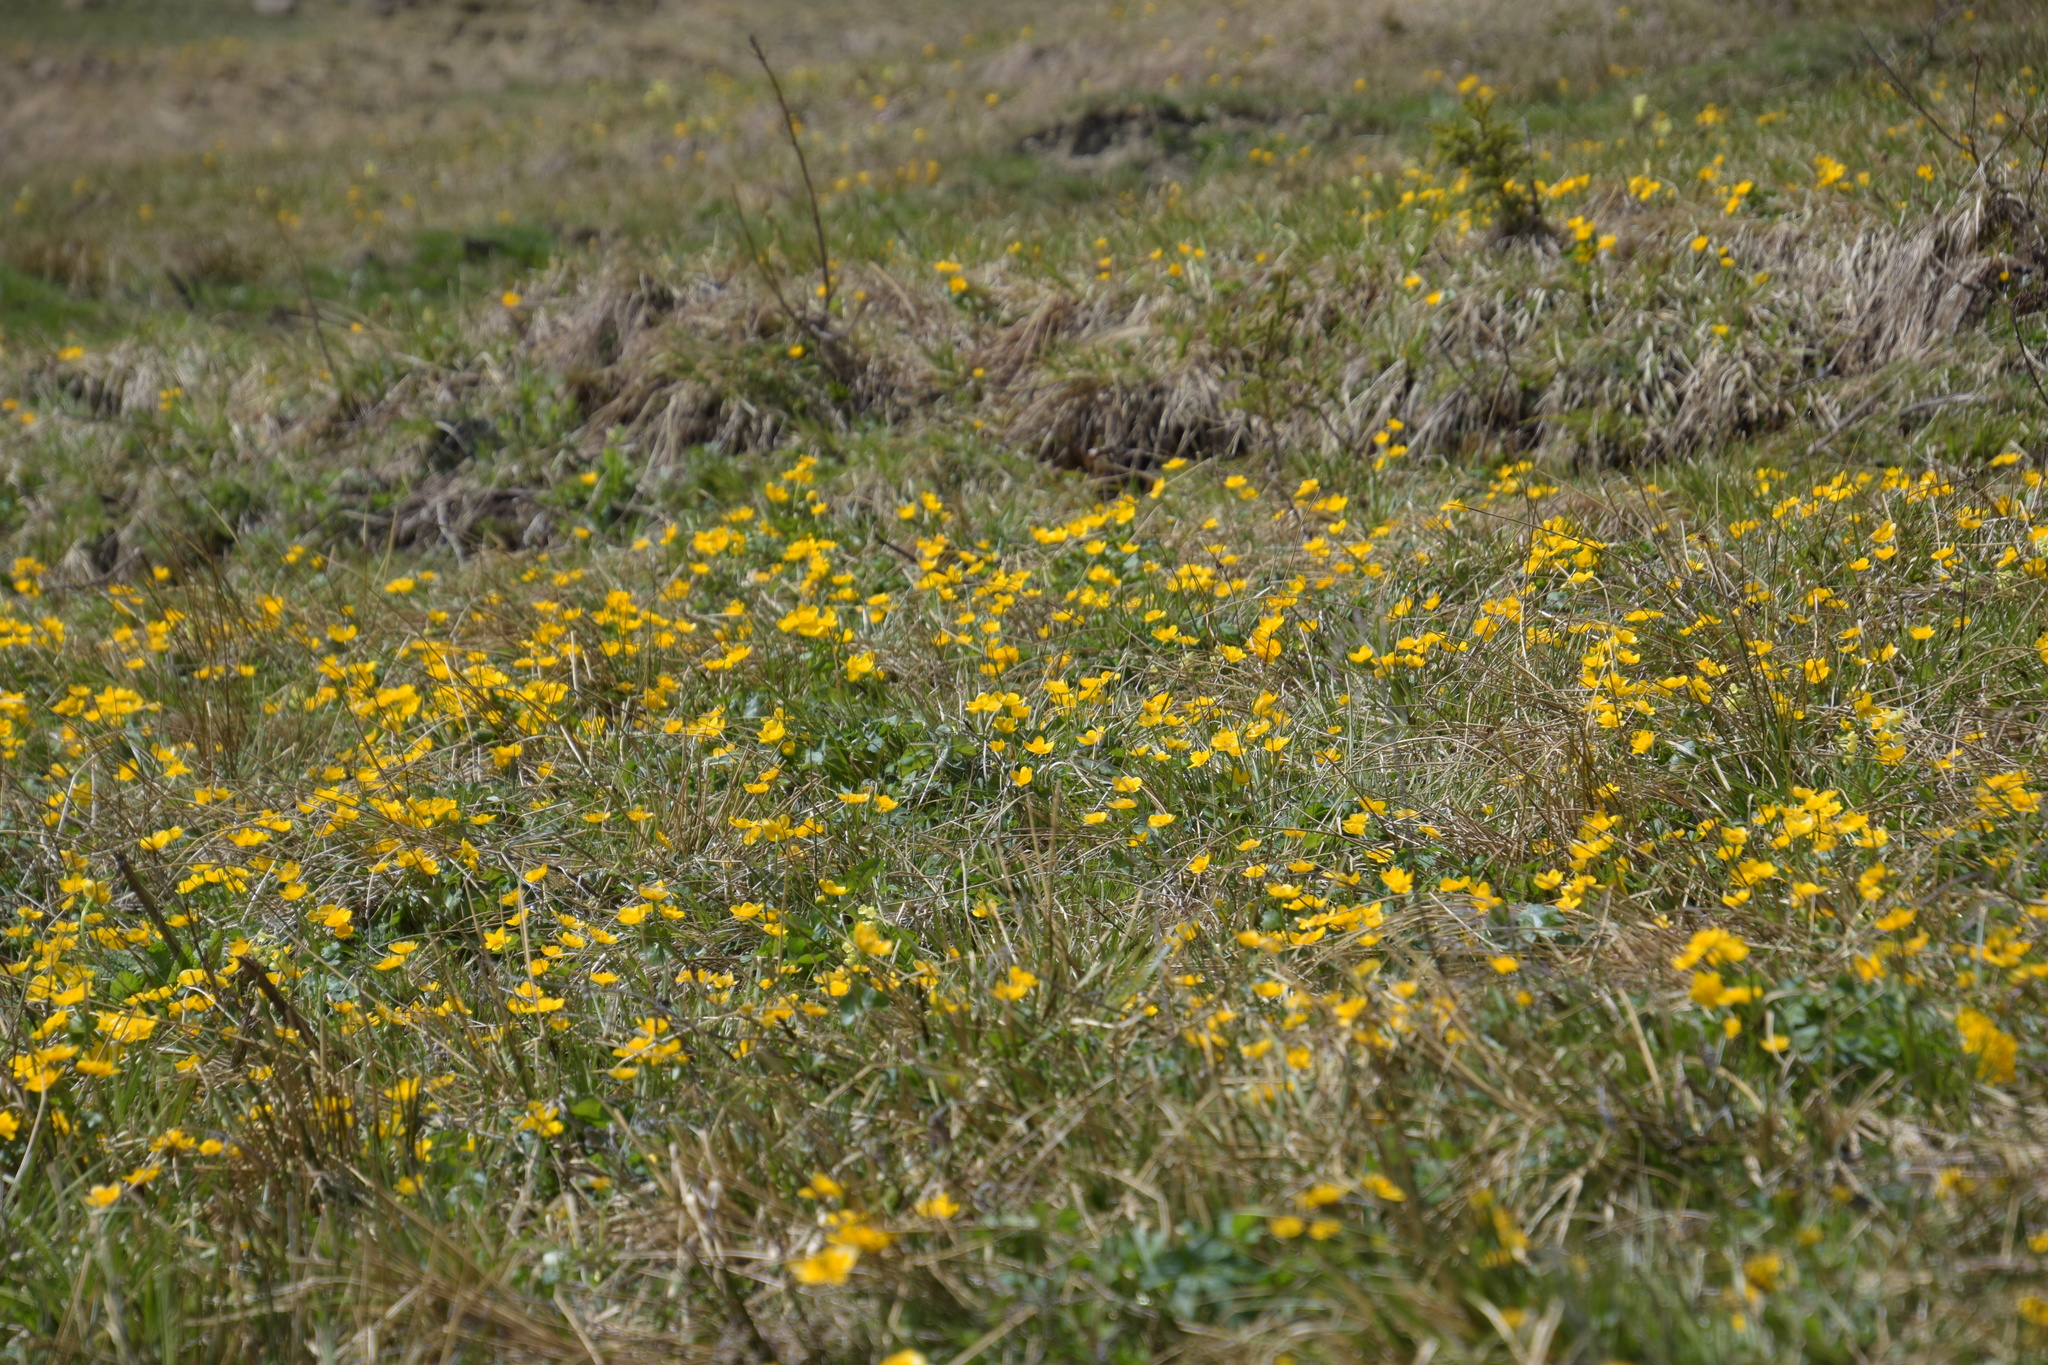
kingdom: Plantae
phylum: Tracheophyta
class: Magnoliopsida
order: Ranunculales
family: Ranunculaceae
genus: Caltha
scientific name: Caltha palustris
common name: Marsh marigold
